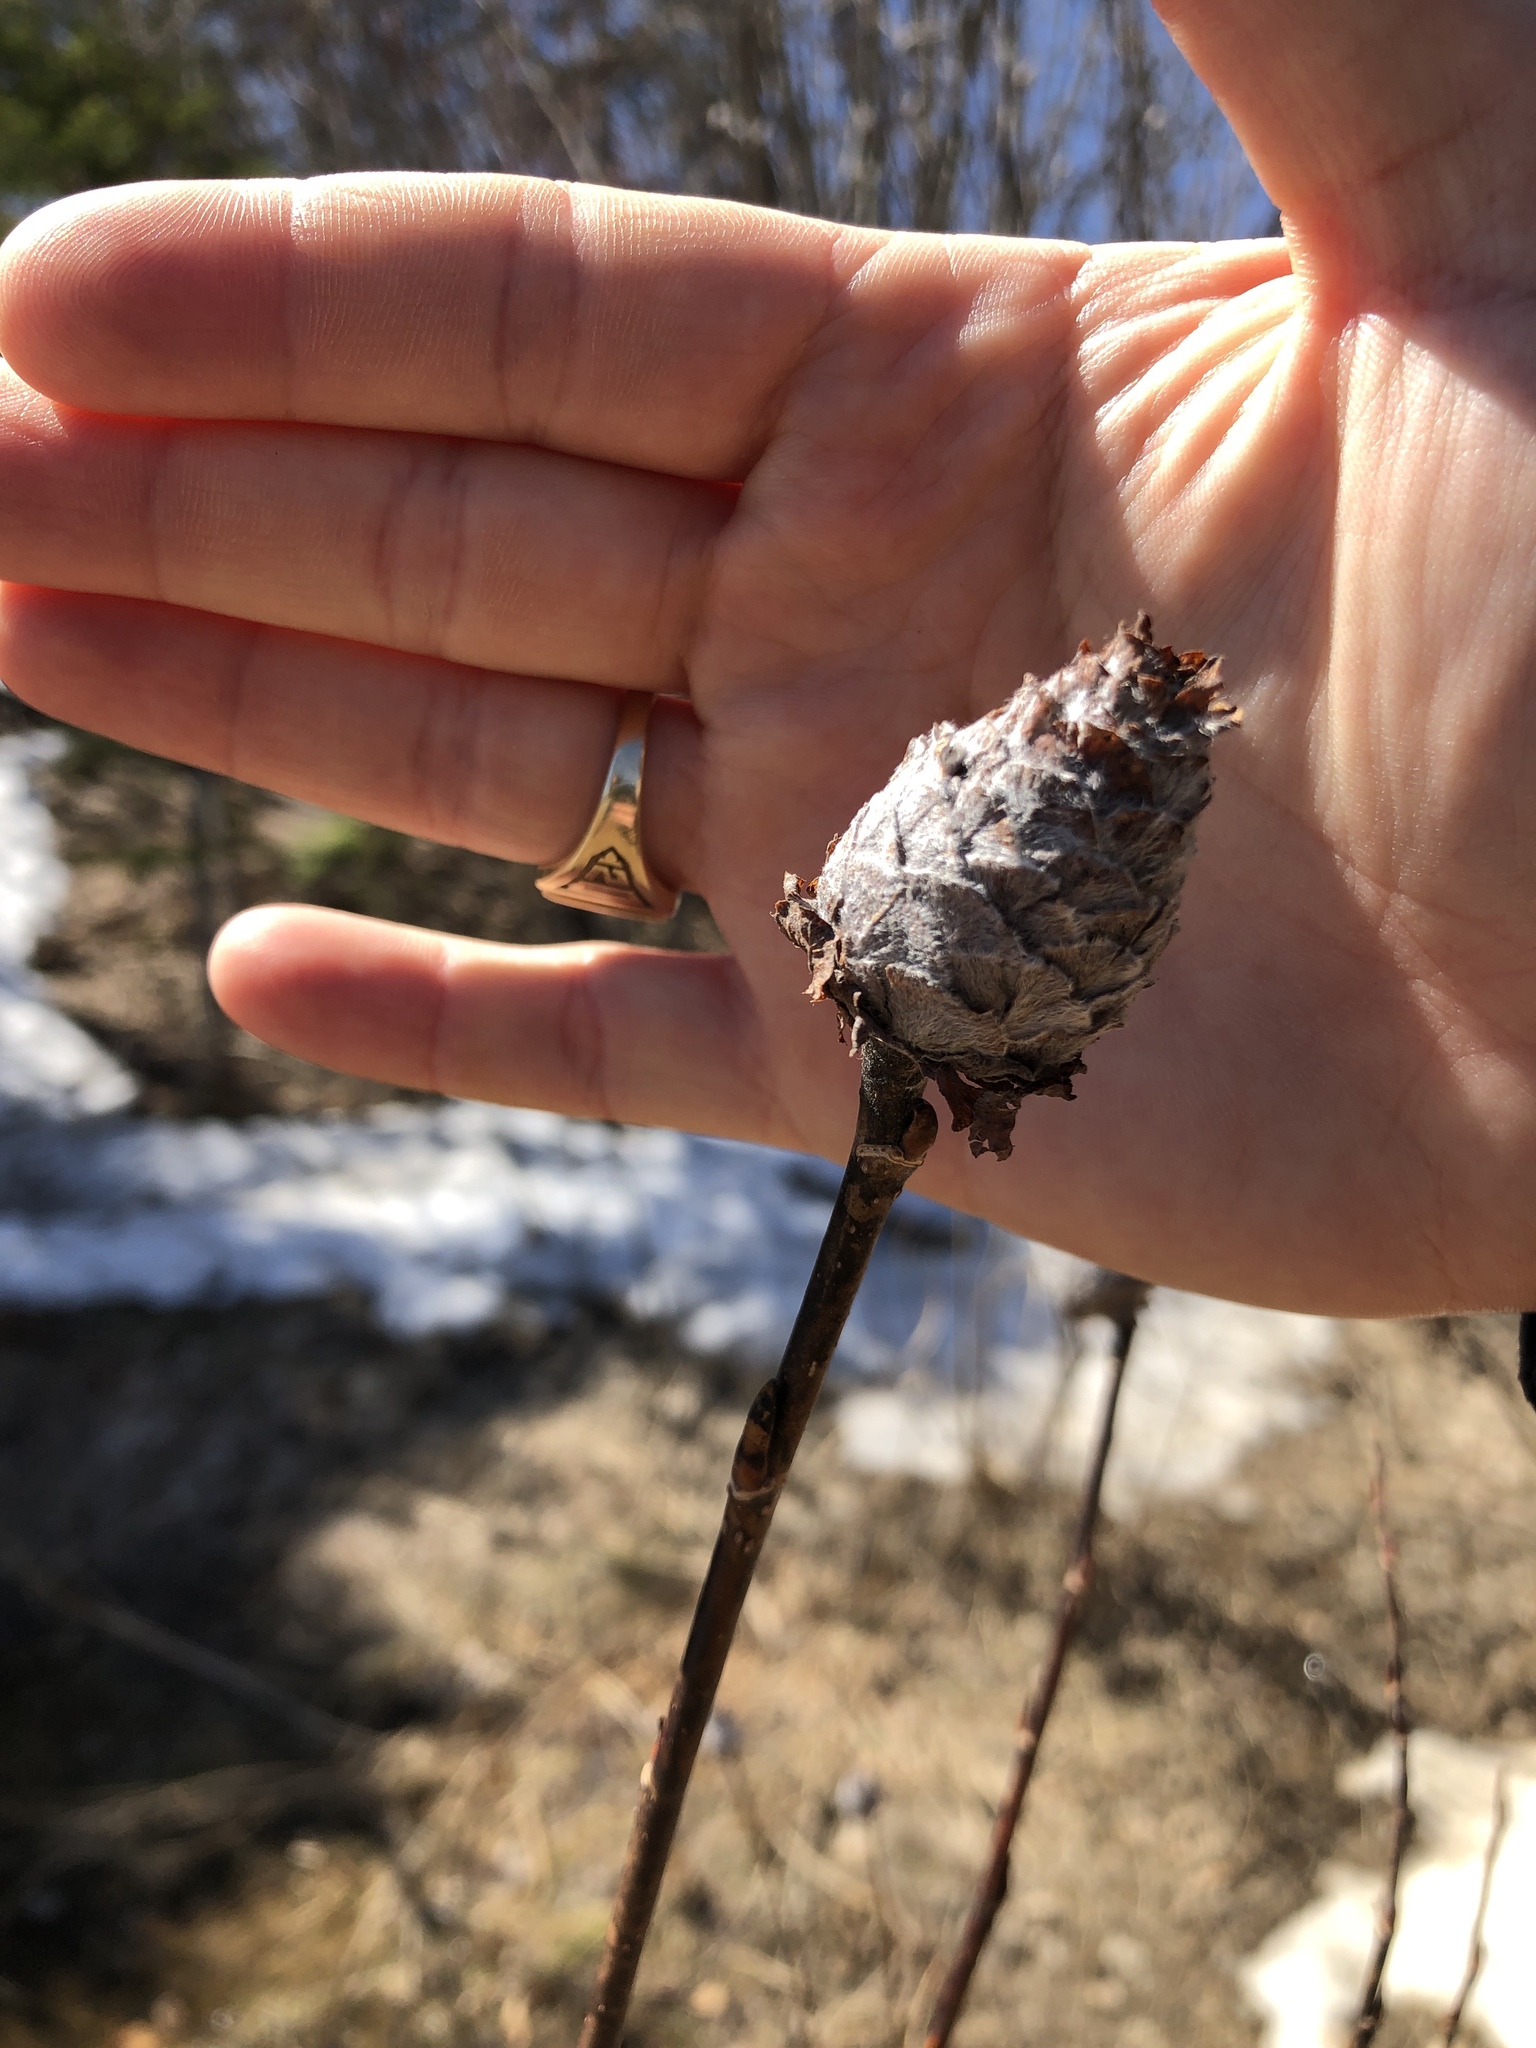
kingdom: Animalia
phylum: Arthropoda
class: Insecta
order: Diptera
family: Cecidomyiidae
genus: Rabdophaga
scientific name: Rabdophaga strobiloides
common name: Willow pinecone gall midge
